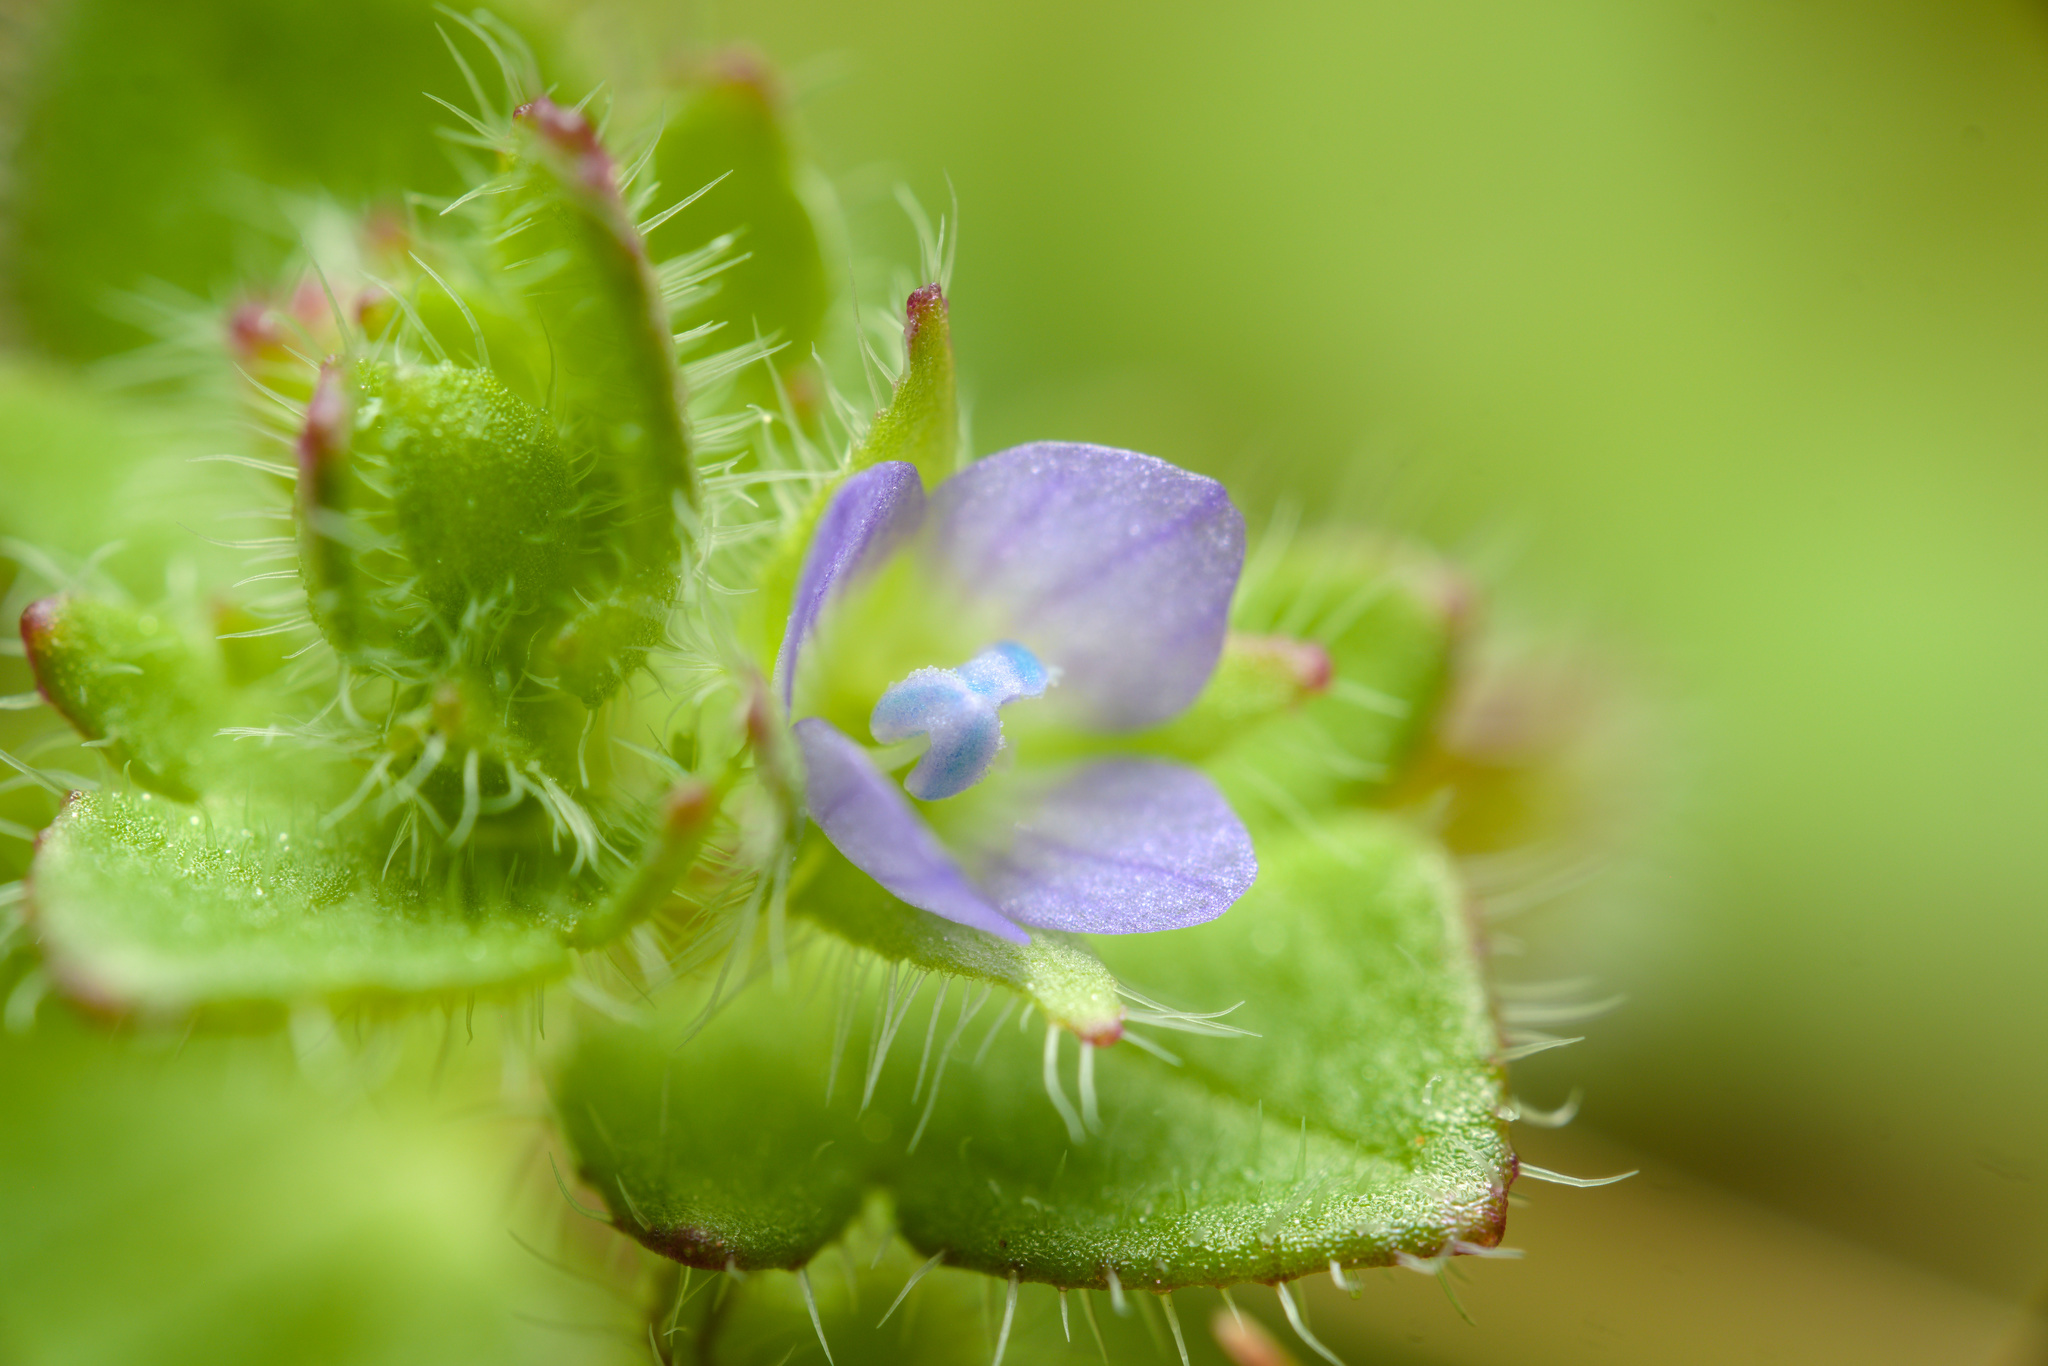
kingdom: Plantae
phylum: Tracheophyta
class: Magnoliopsida
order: Lamiales
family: Plantaginaceae
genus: Veronica
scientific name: Veronica hederifolia
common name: Ivy-leaved speedwell
